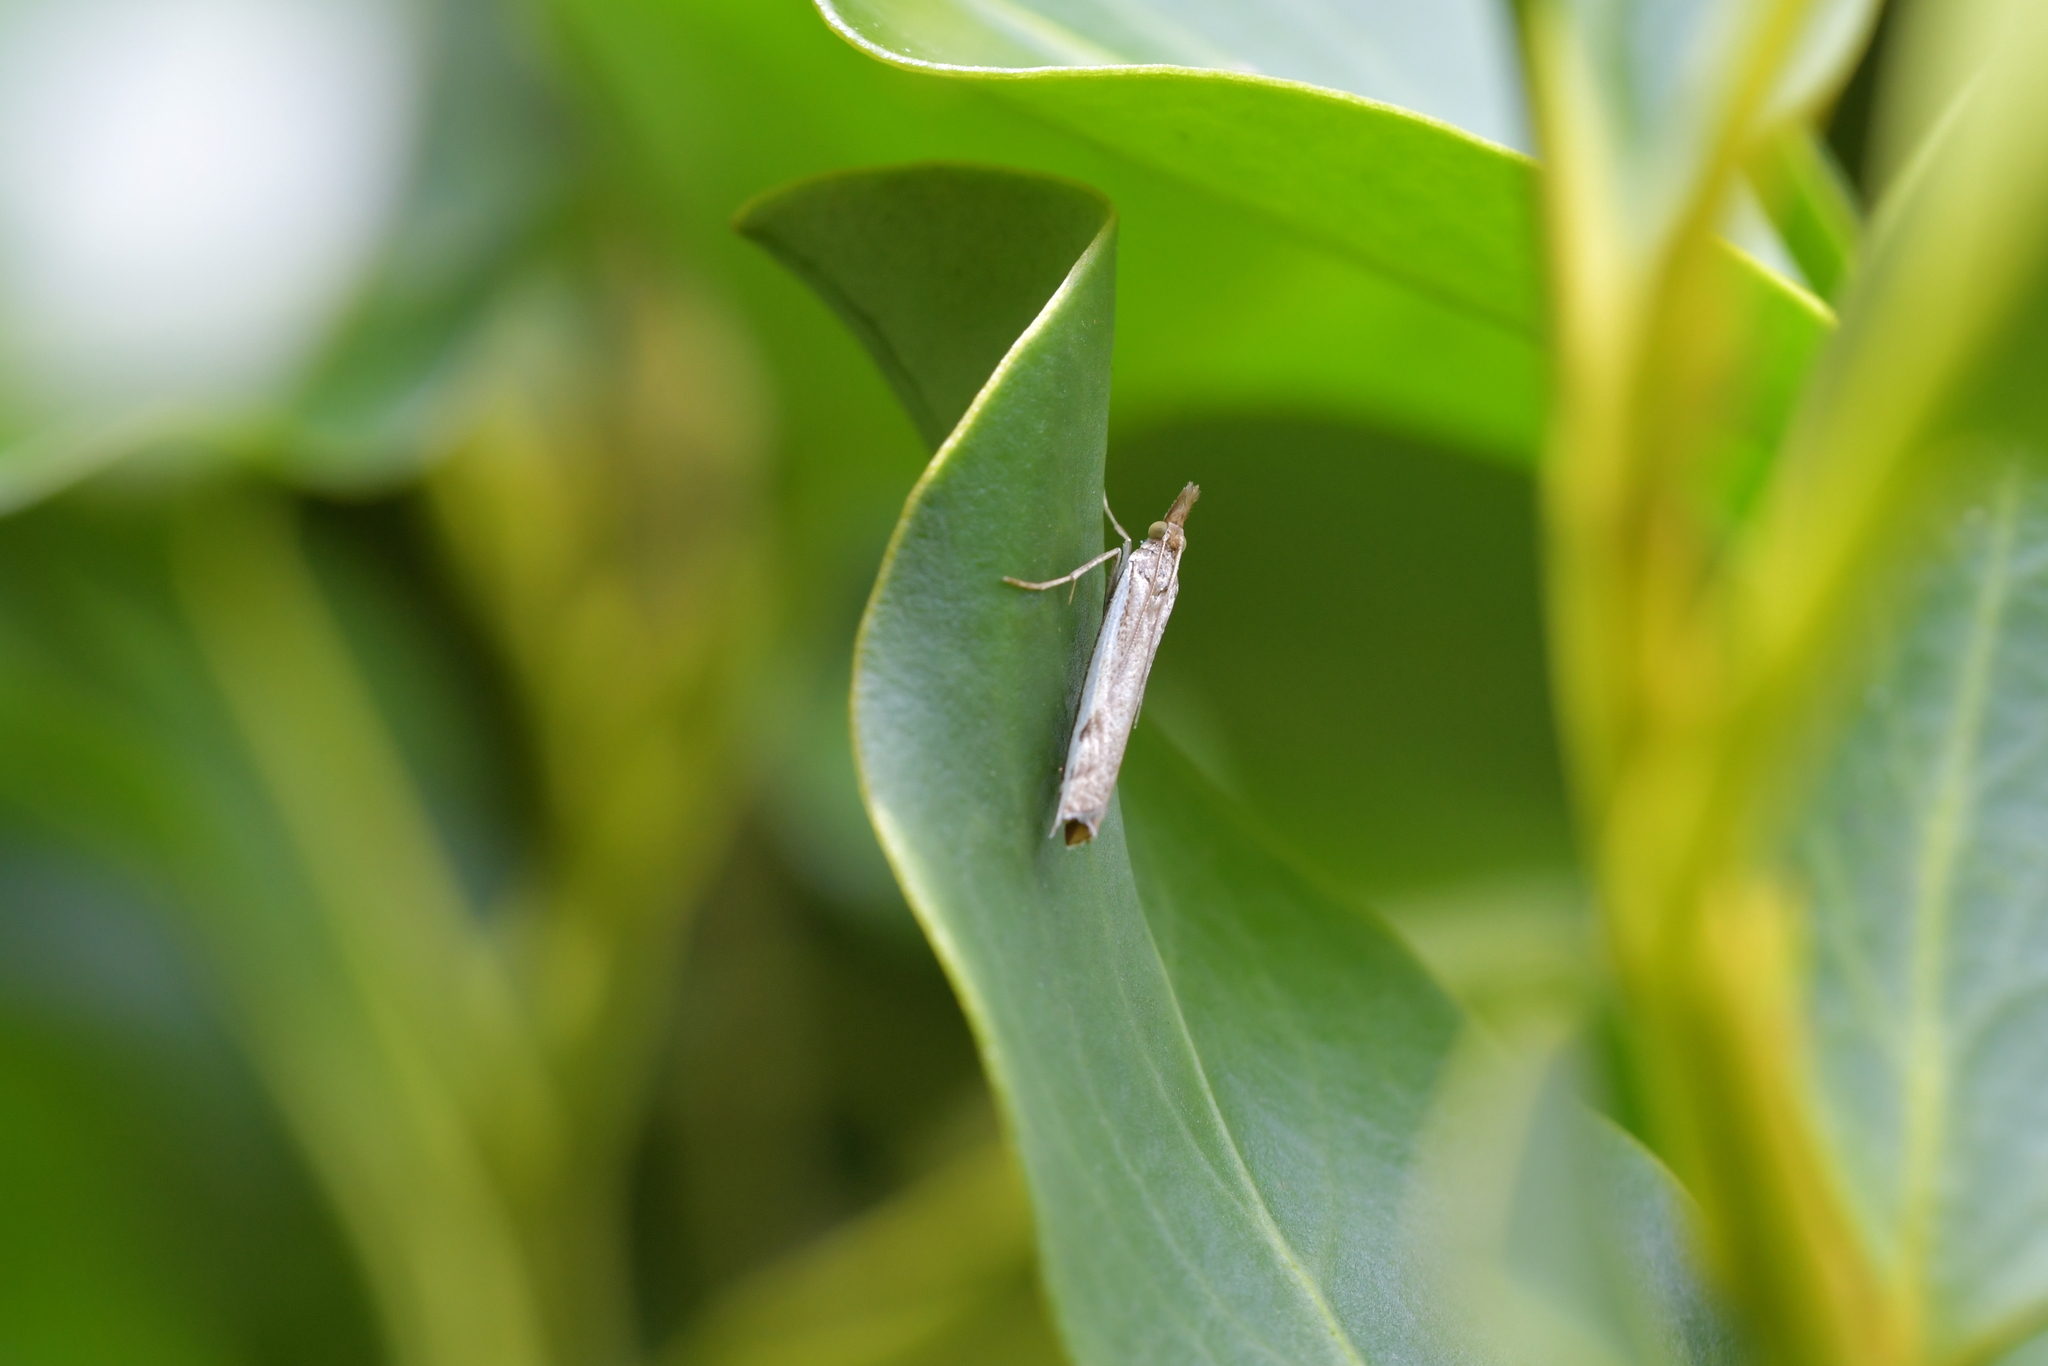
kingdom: Animalia
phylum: Arthropoda
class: Insecta
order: Lepidoptera
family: Crambidae
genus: Orocrambus
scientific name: Orocrambus flexuosellus
